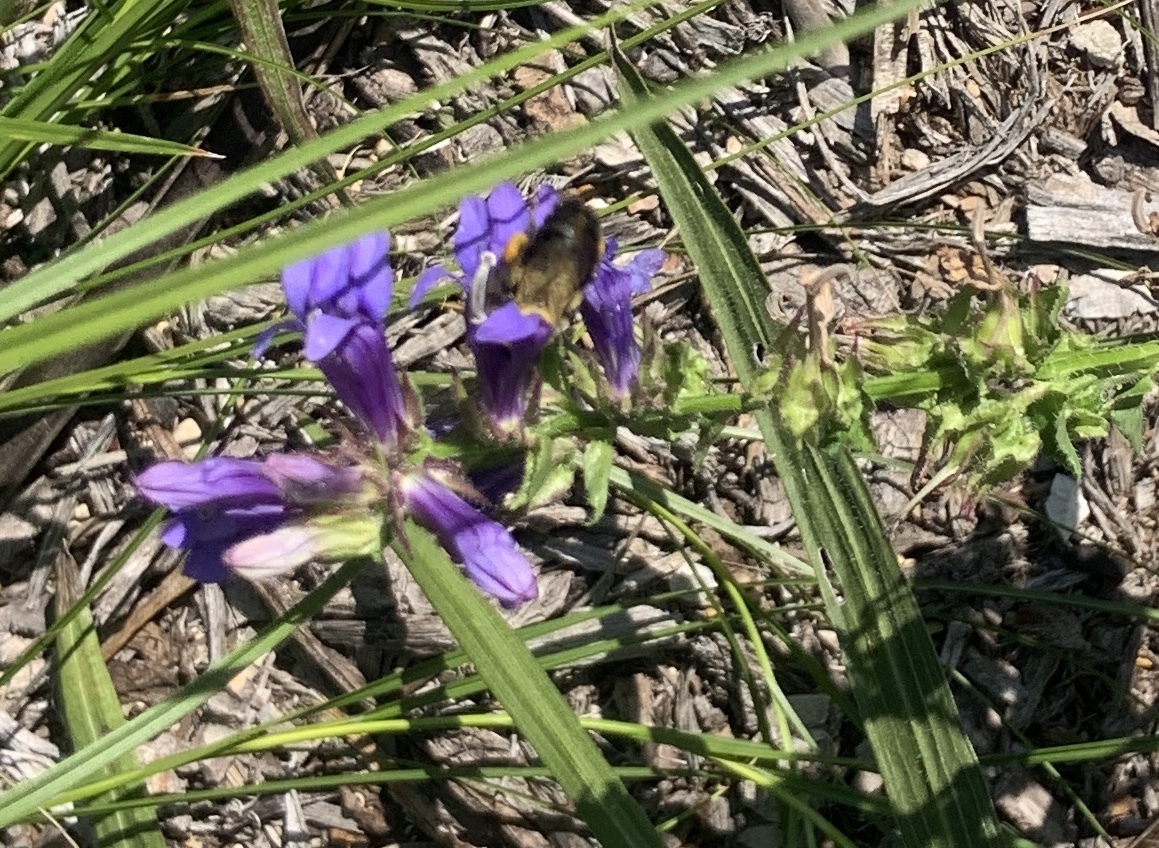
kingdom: Animalia
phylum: Arthropoda
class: Insecta
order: Hymenoptera
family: Apidae
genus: Bombus
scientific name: Bombus impatiens
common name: Common eastern bumble bee
